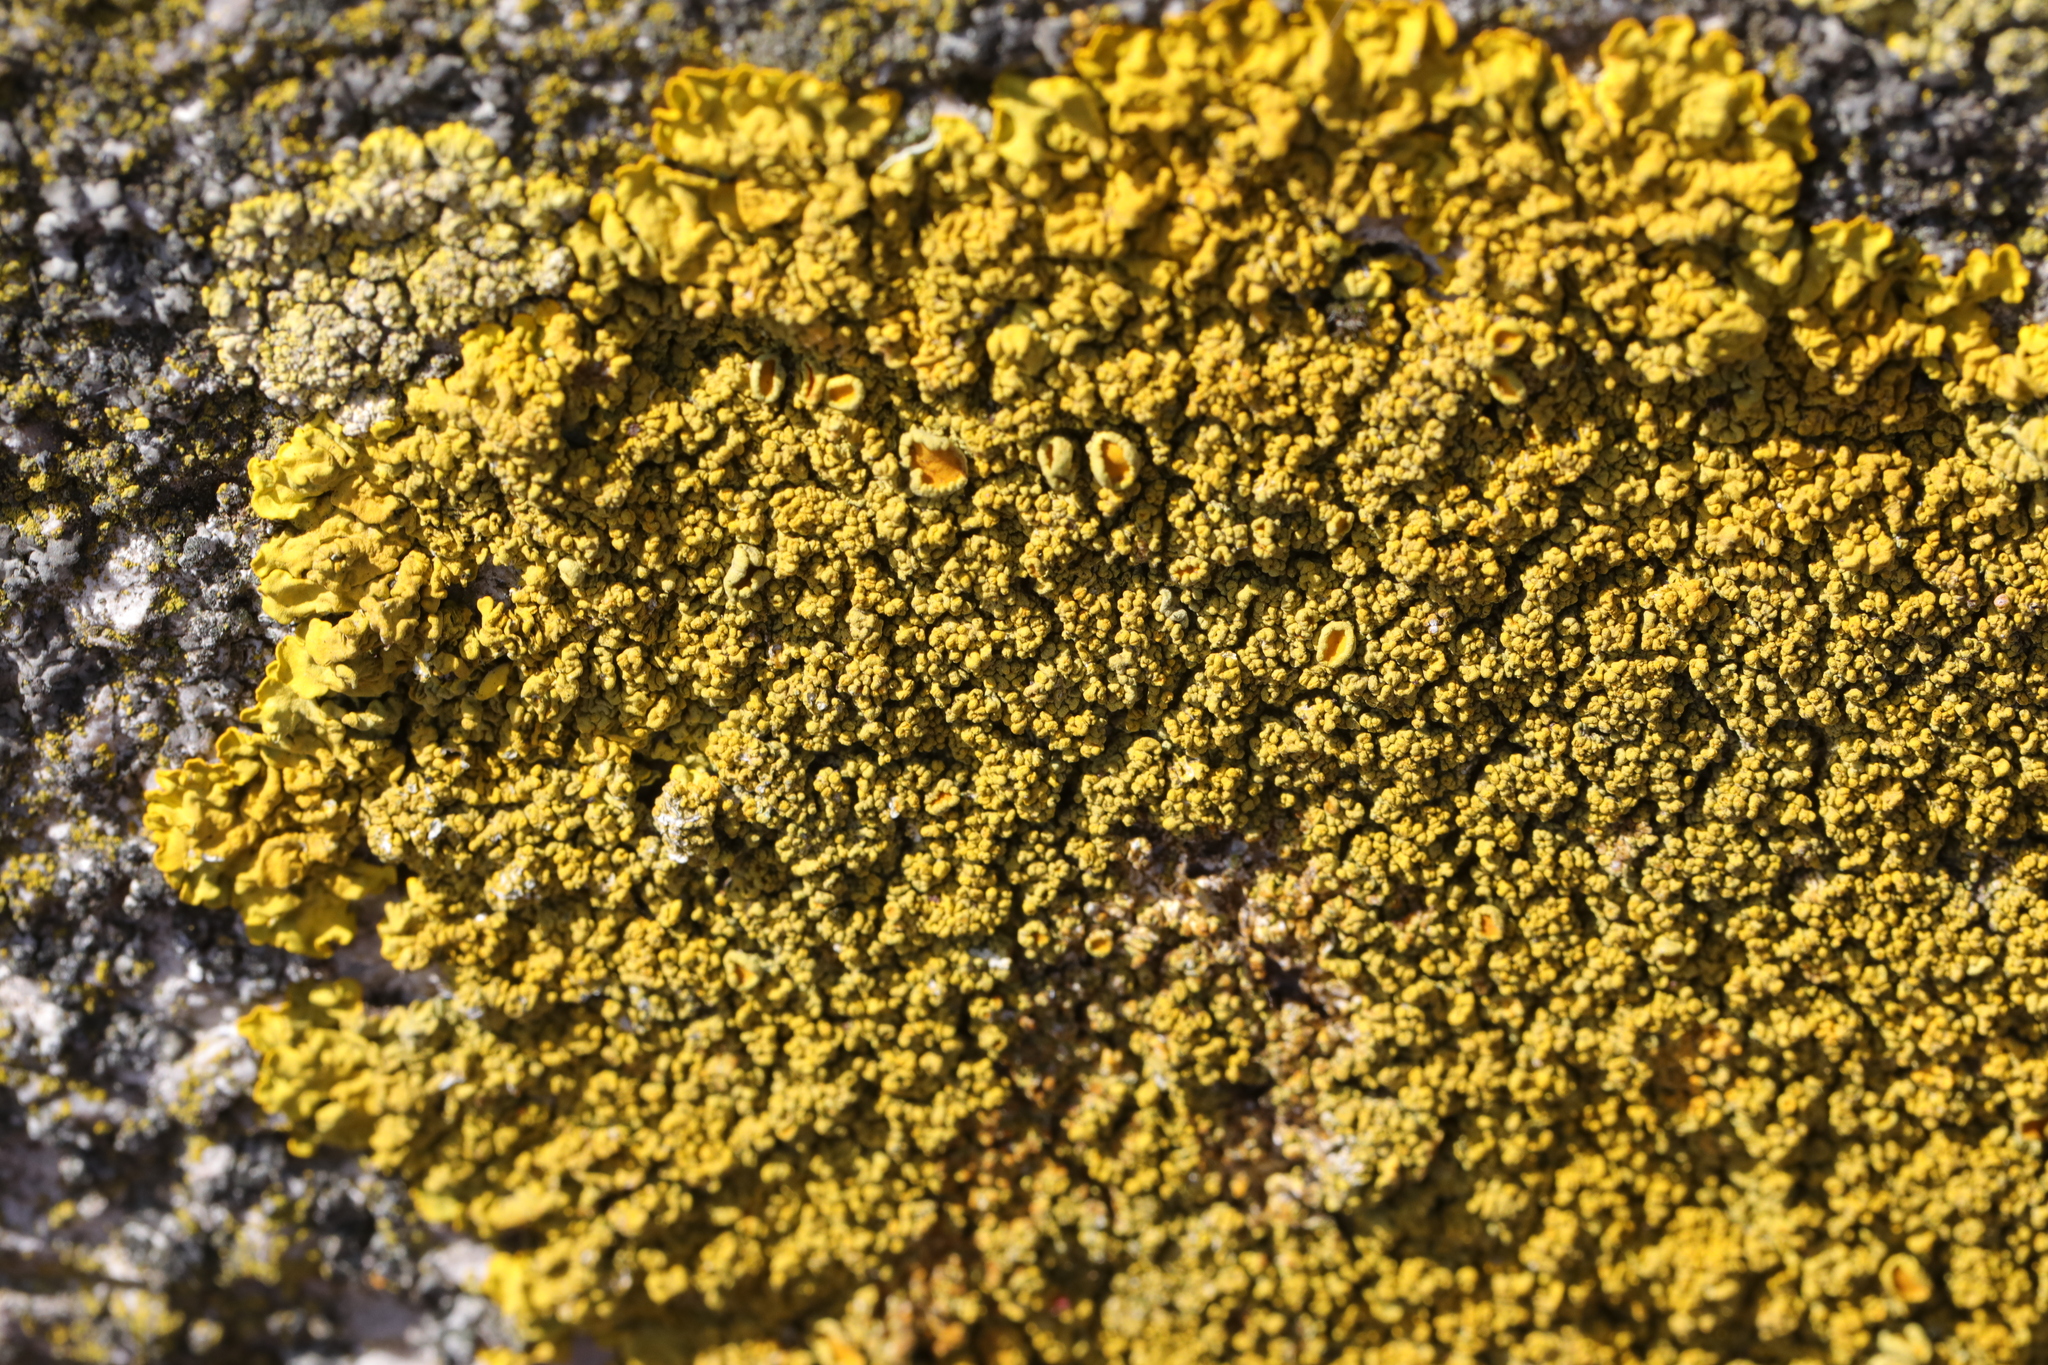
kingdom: Fungi
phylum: Ascomycota
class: Lecanoromycetes
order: Teloschistales
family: Teloschistaceae
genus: Xanthoria
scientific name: Xanthoria calcicola
